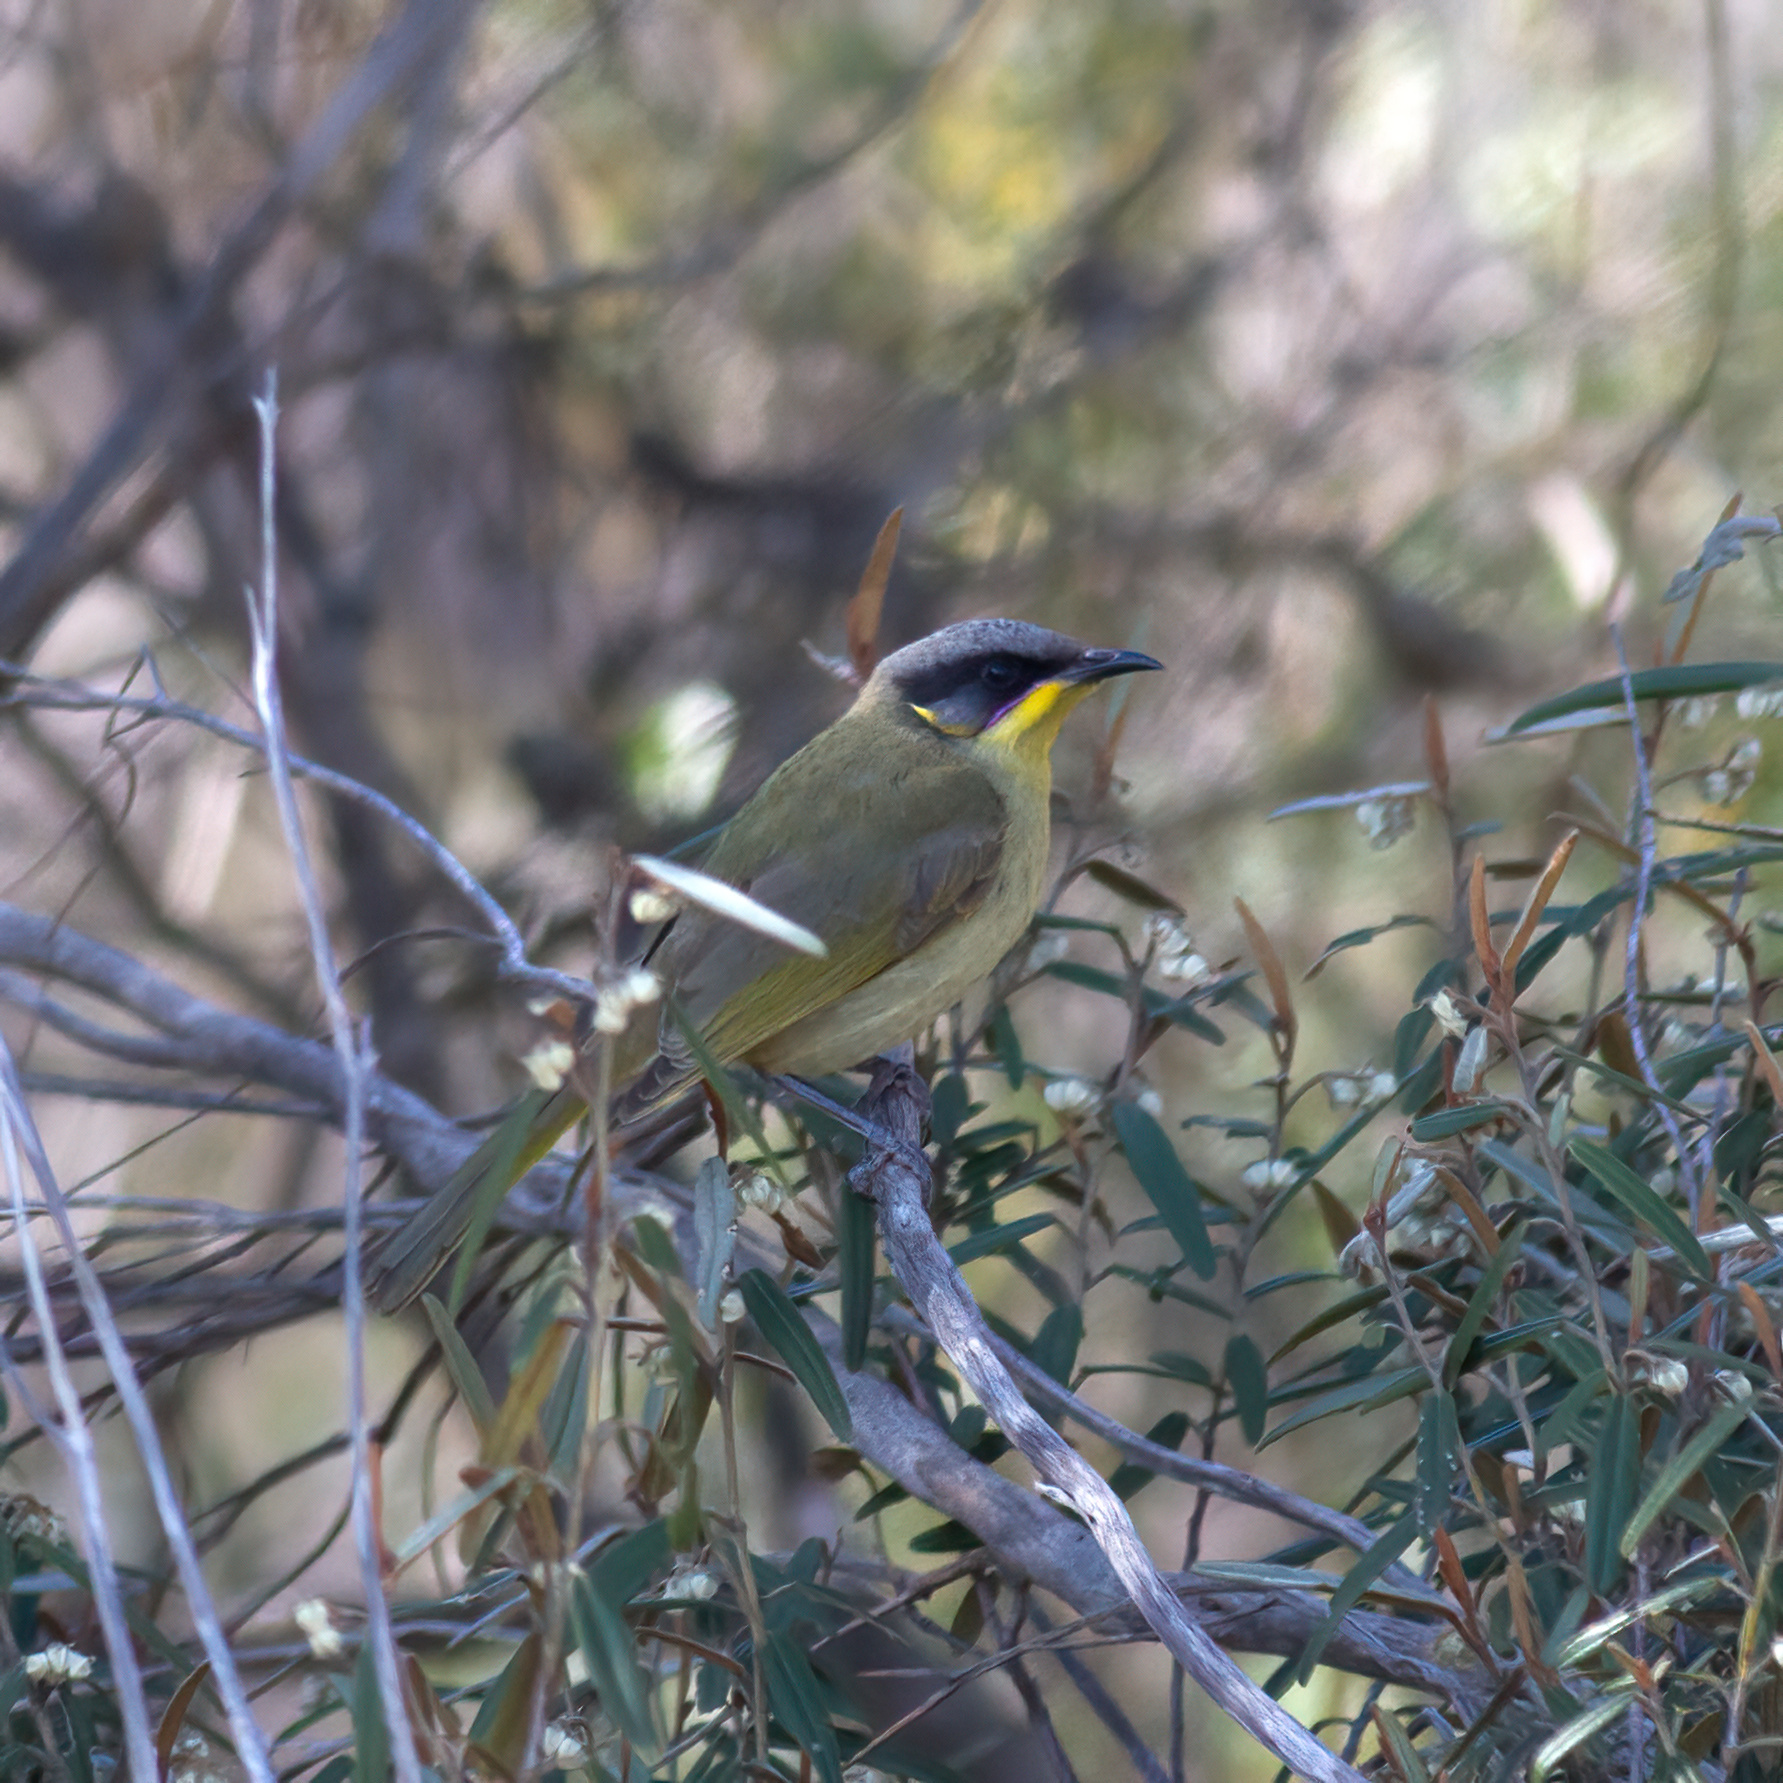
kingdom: Animalia
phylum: Chordata
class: Aves
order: Passeriformes
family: Meliphagidae
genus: Lichenostomus
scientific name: Lichenostomus cratitius
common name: Purple-gaped honeyeater
